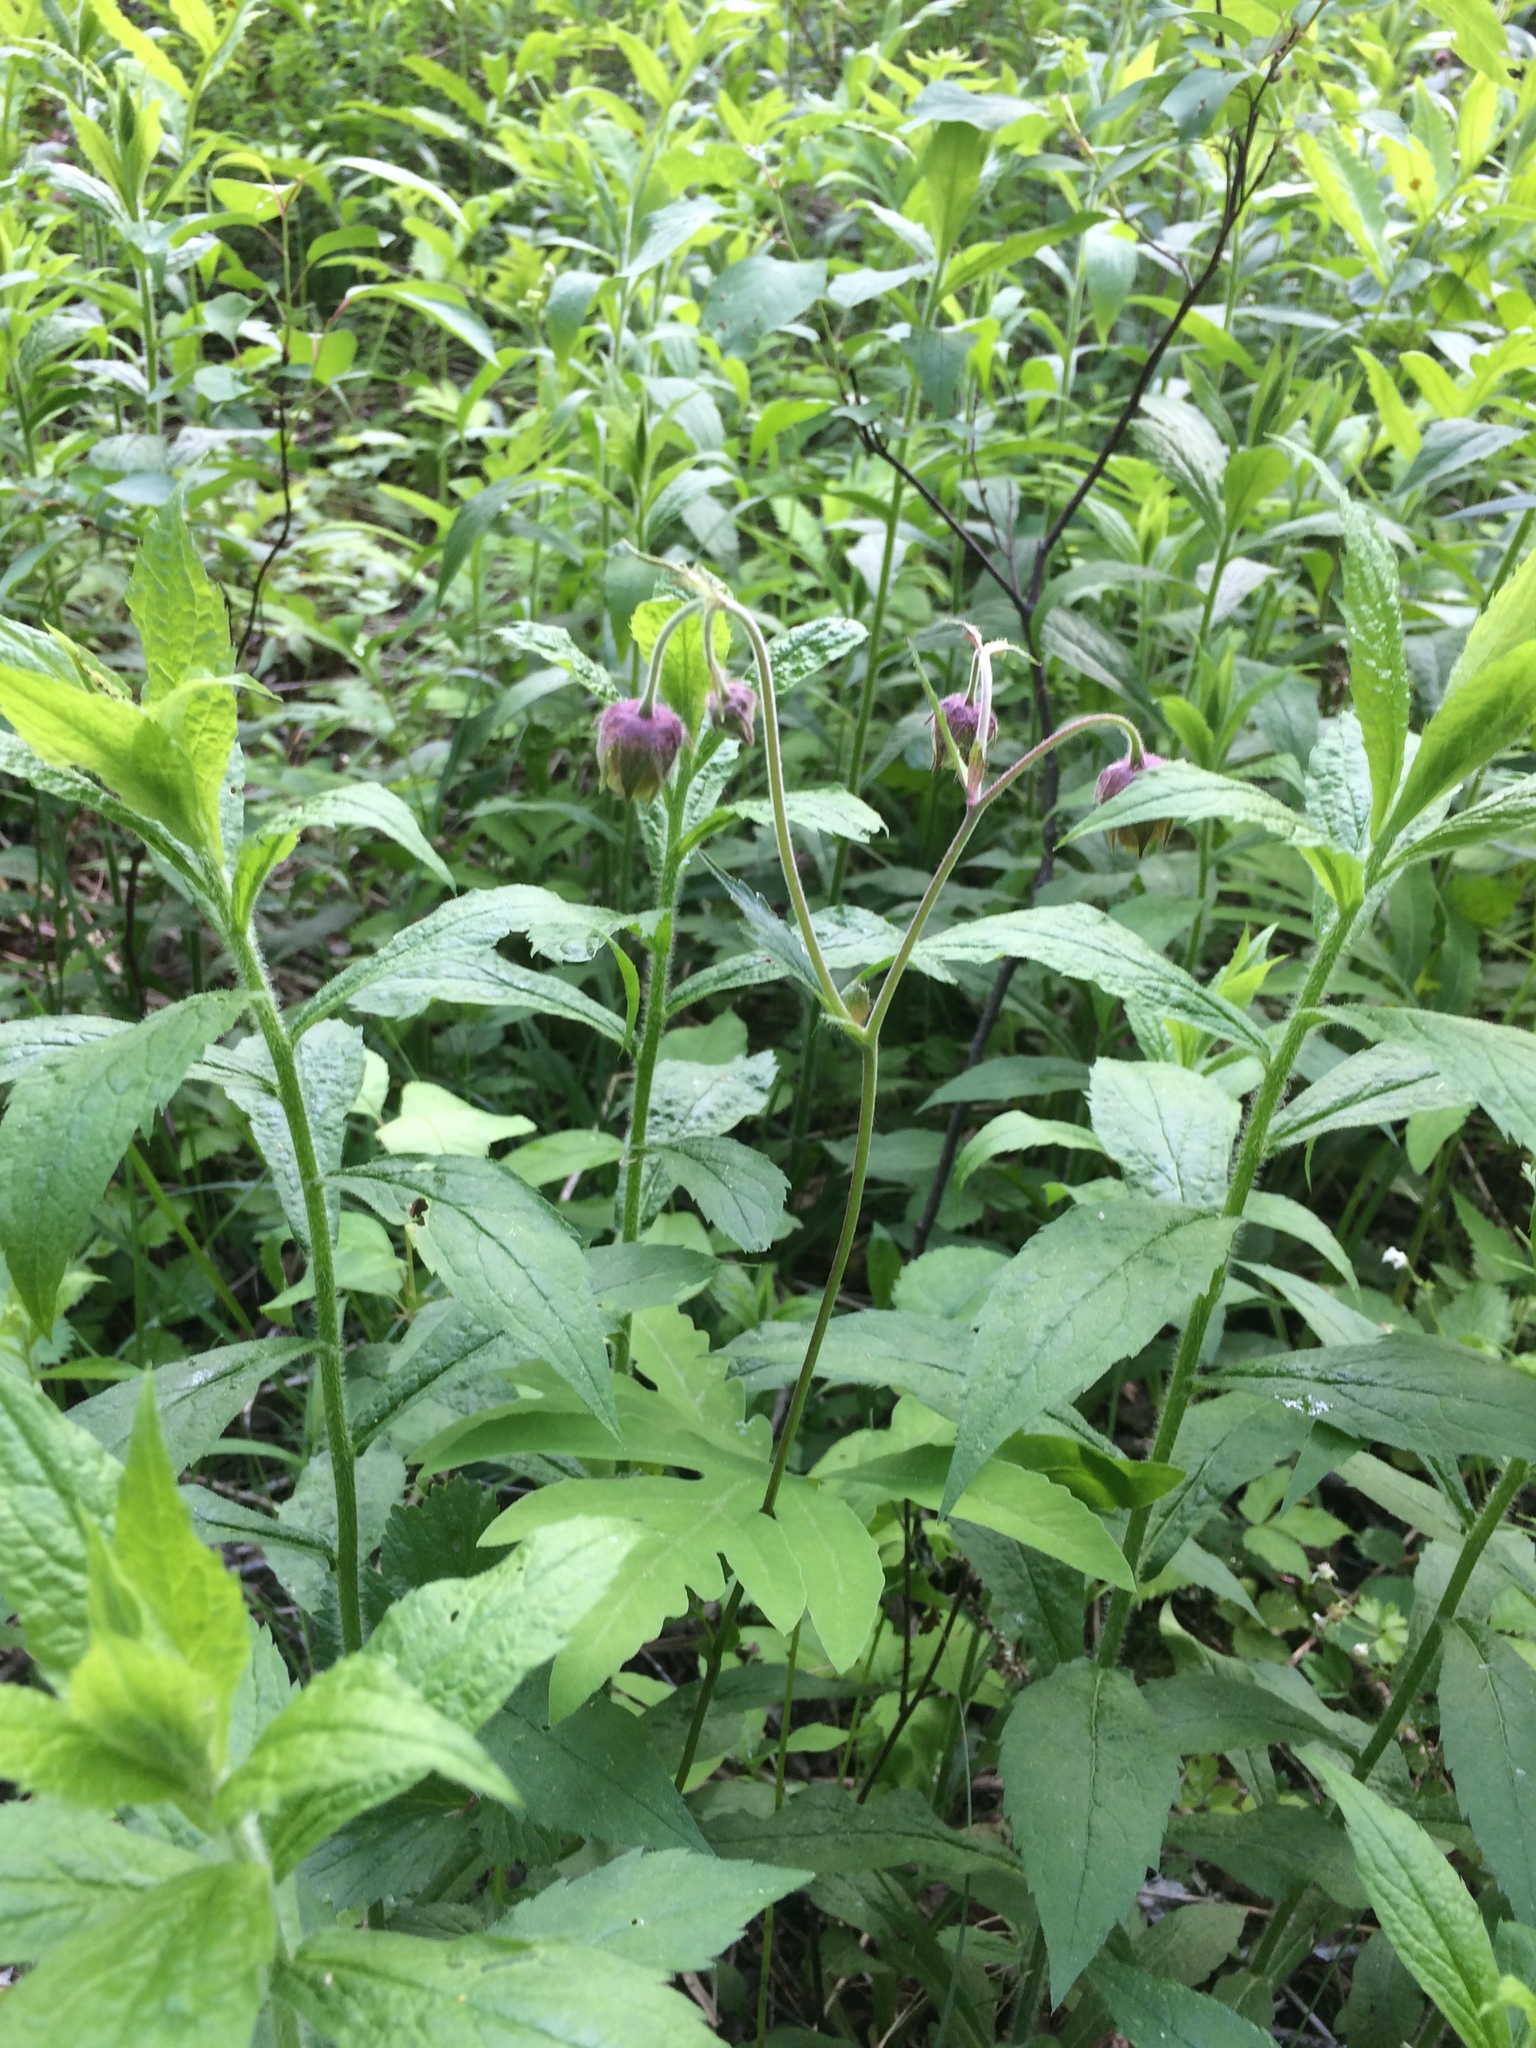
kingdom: Plantae
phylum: Tracheophyta
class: Magnoliopsida
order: Rosales
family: Rosaceae
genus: Geum
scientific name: Geum rivale
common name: Water avens
